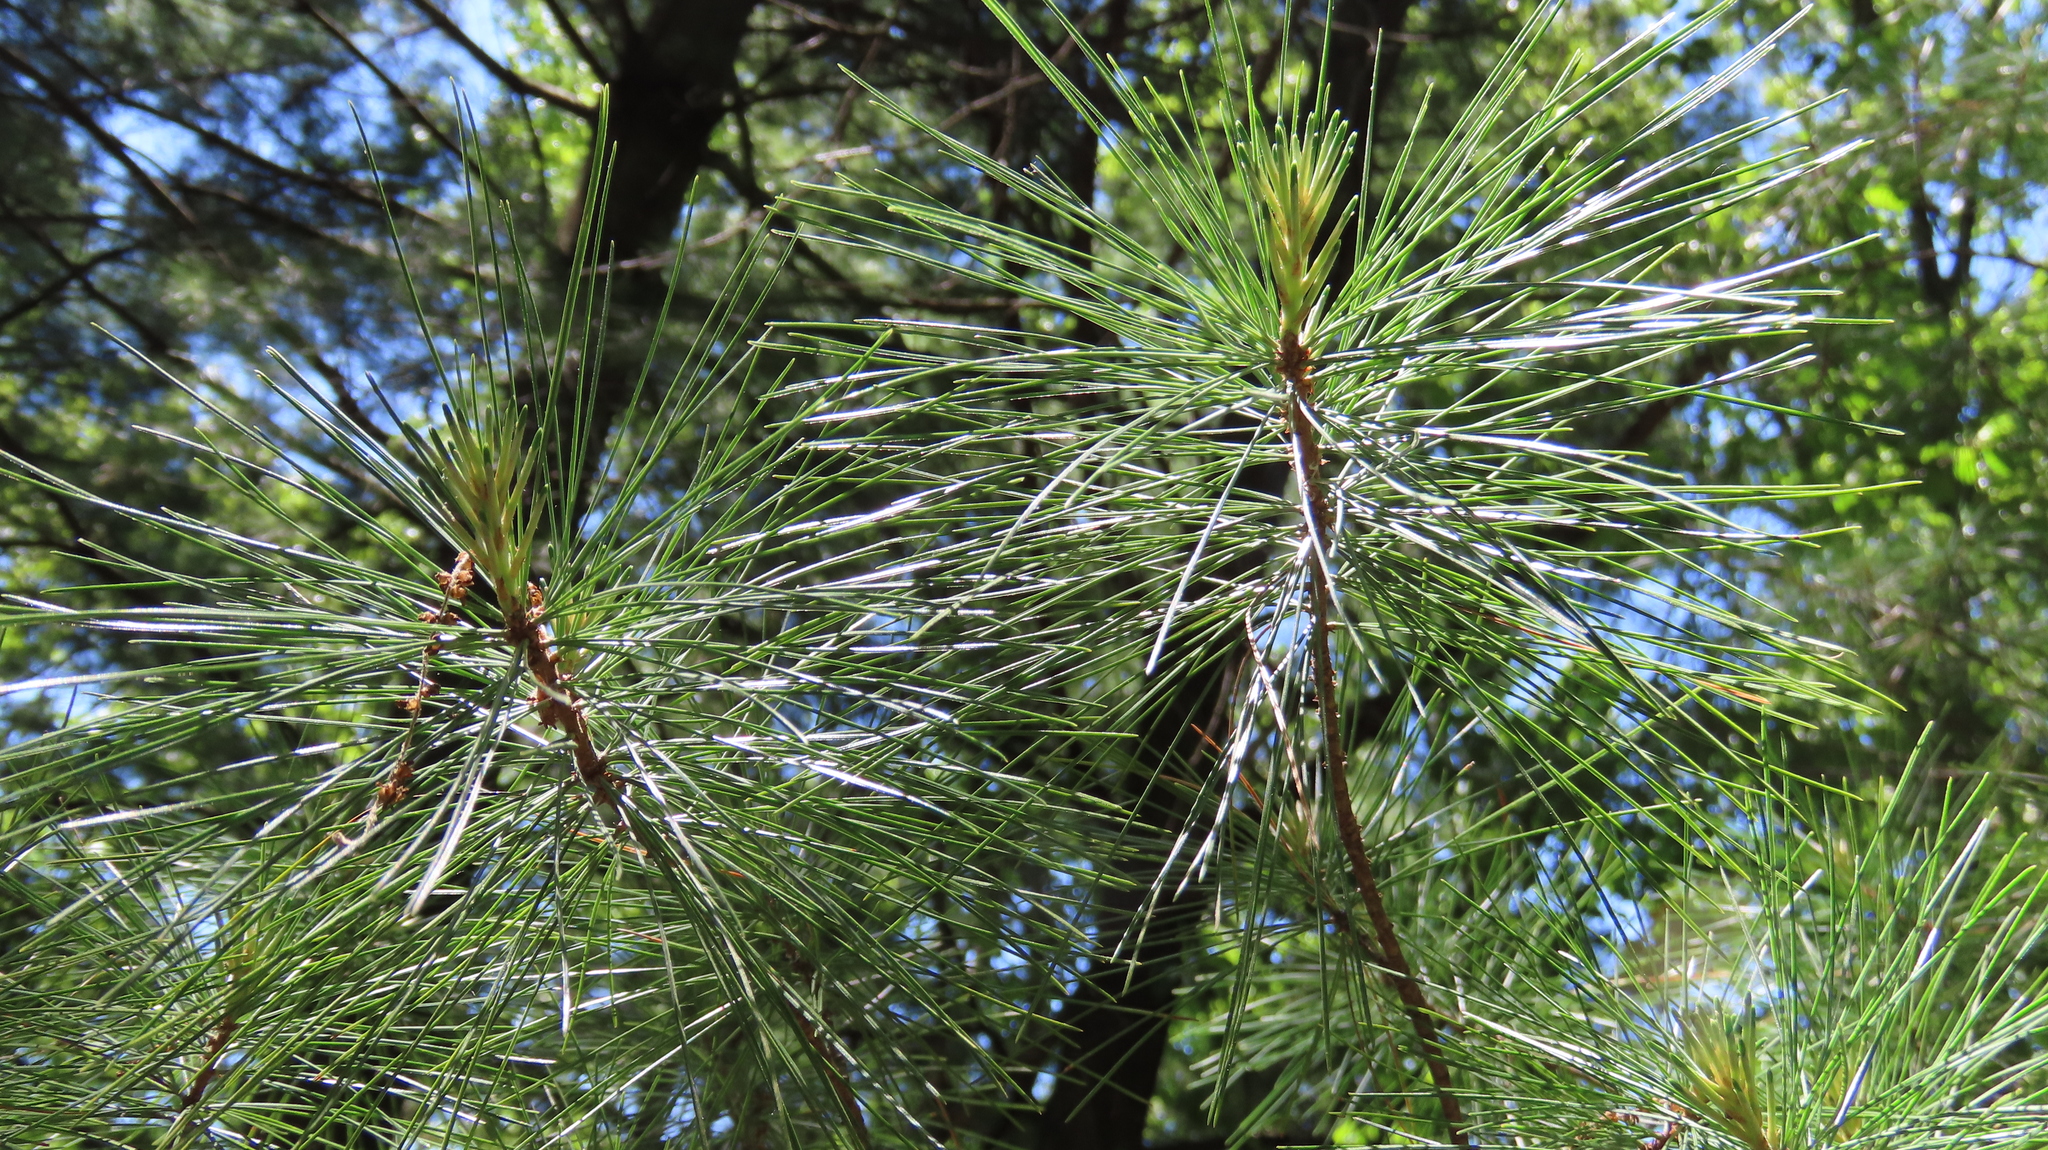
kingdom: Plantae
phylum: Tracheophyta
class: Pinopsida
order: Pinales
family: Pinaceae
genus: Pinus
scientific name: Pinus strobus
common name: Weymouth pine
